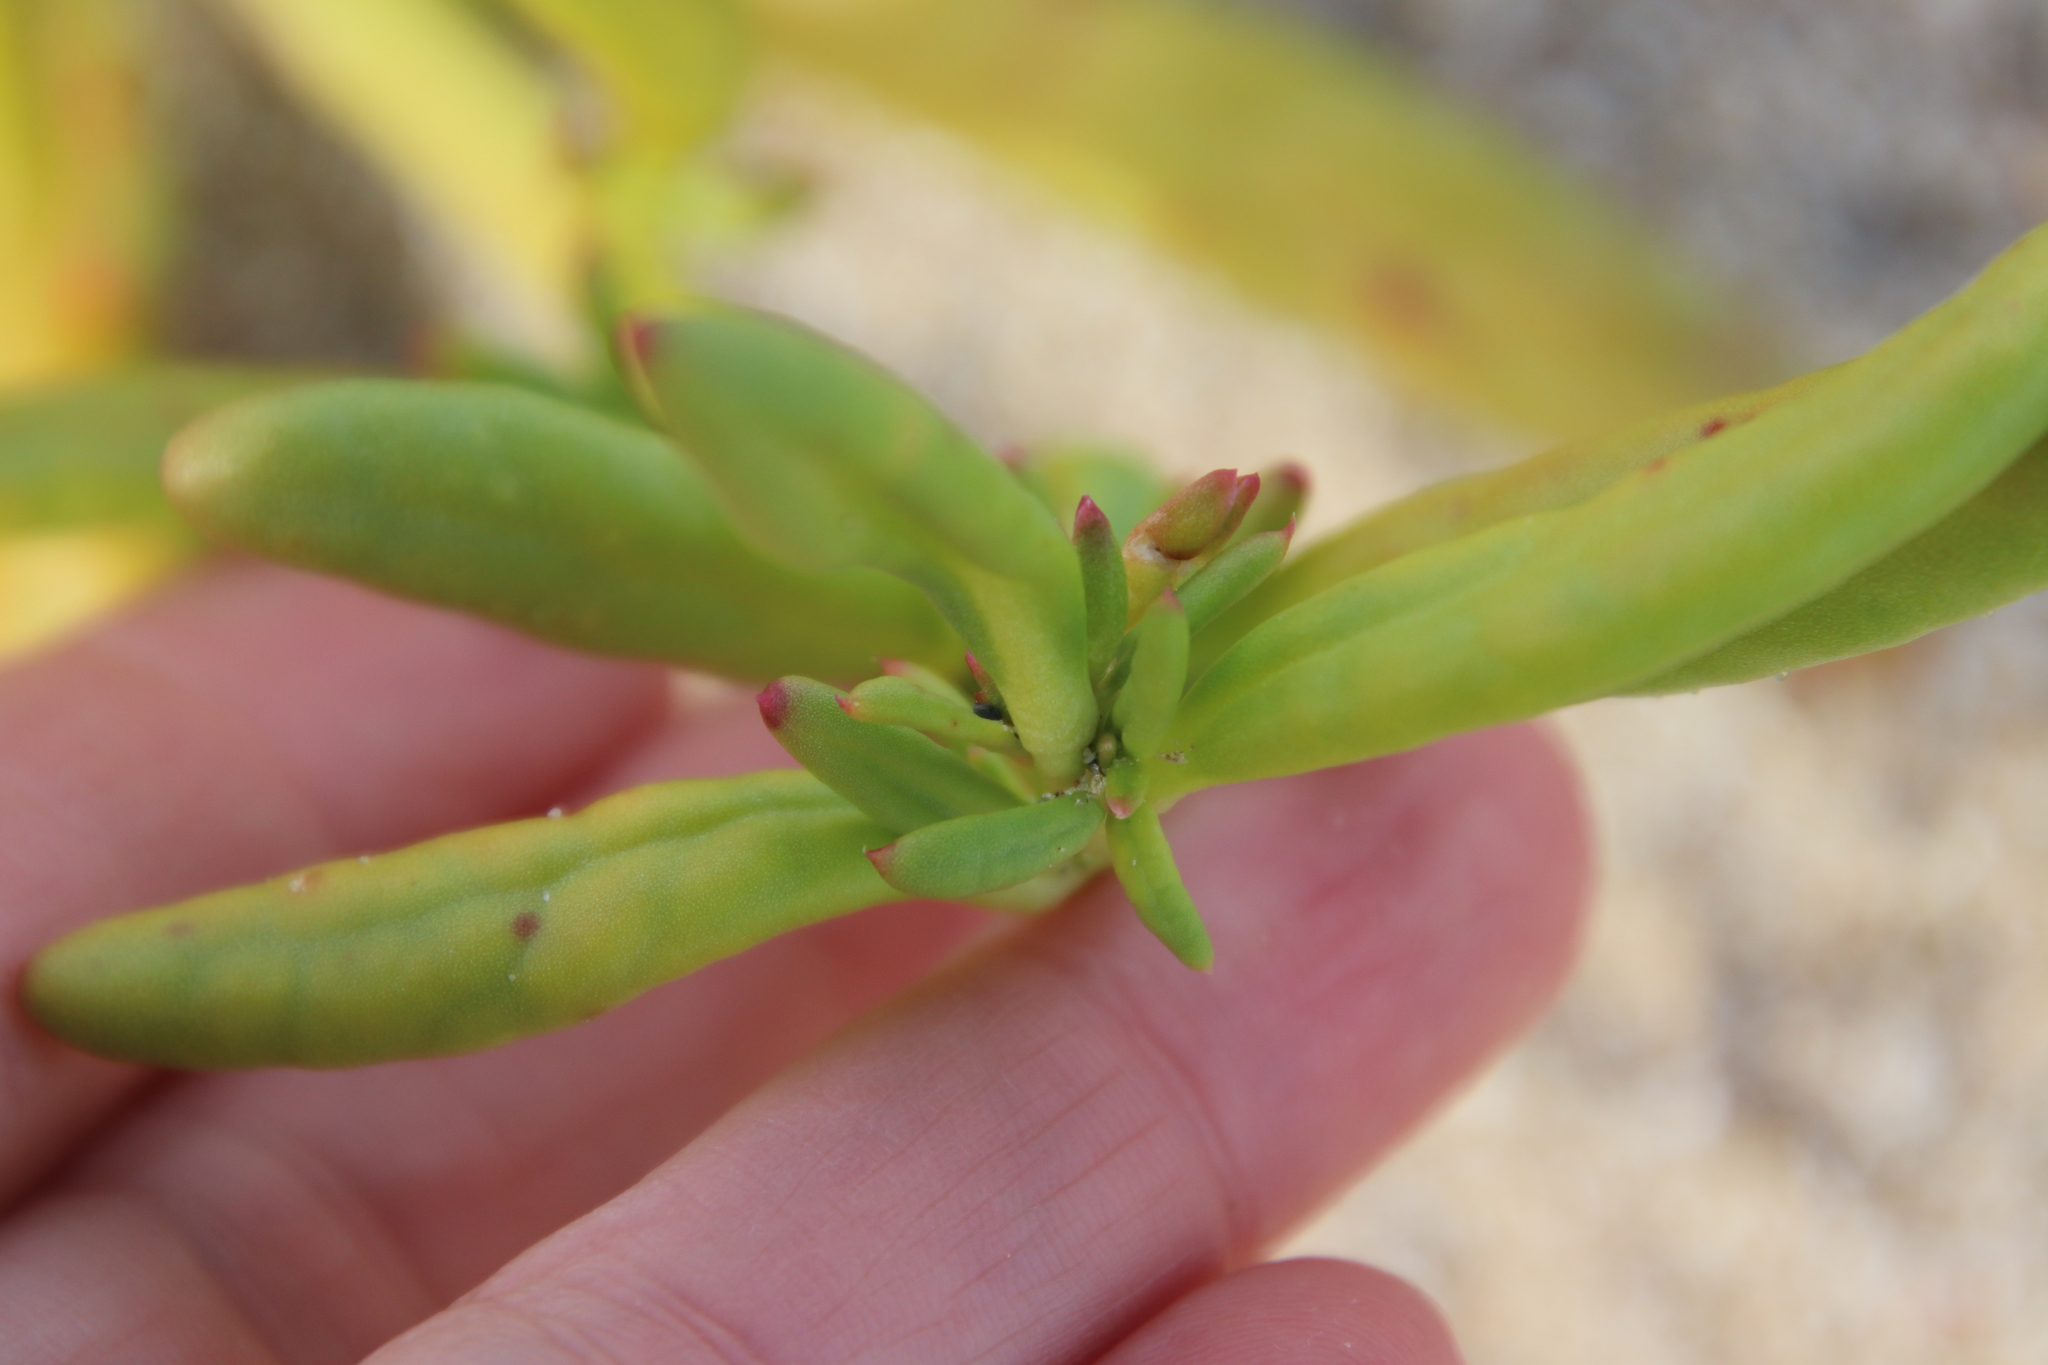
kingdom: Plantae
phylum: Tracheophyta
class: Magnoliopsida
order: Caryophyllales
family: Montiaceae
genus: Thingia
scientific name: Thingia ambigua
